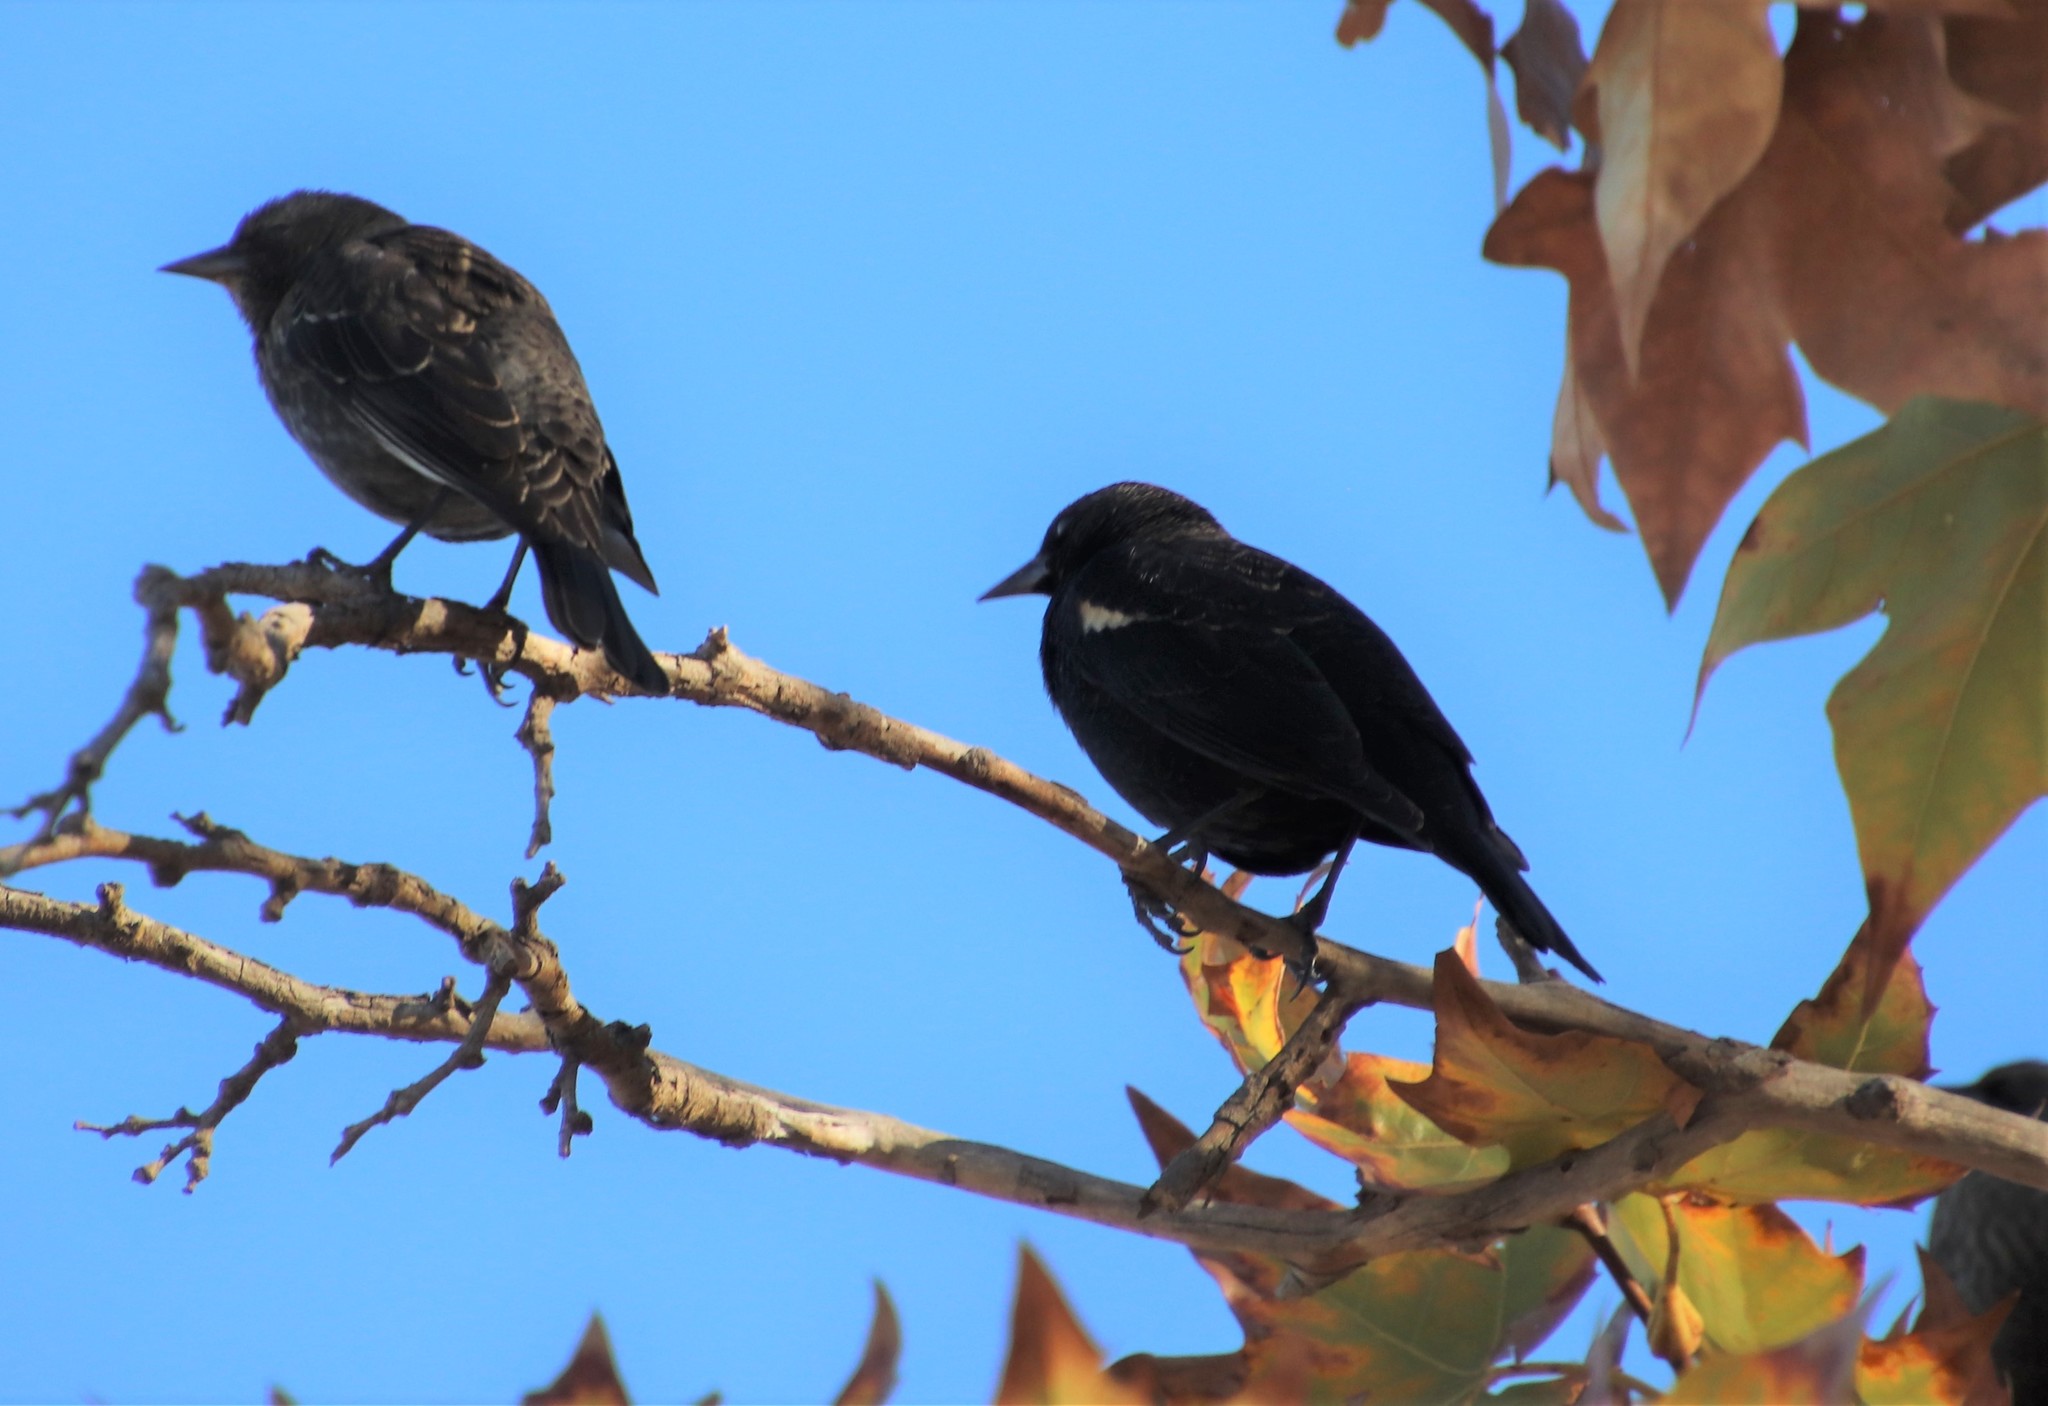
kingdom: Animalia
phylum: Chordata
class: Aves
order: Passeriformes
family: Icteridae
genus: Agelaius
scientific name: Agelaius tricolor
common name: Tricolored blackbird
